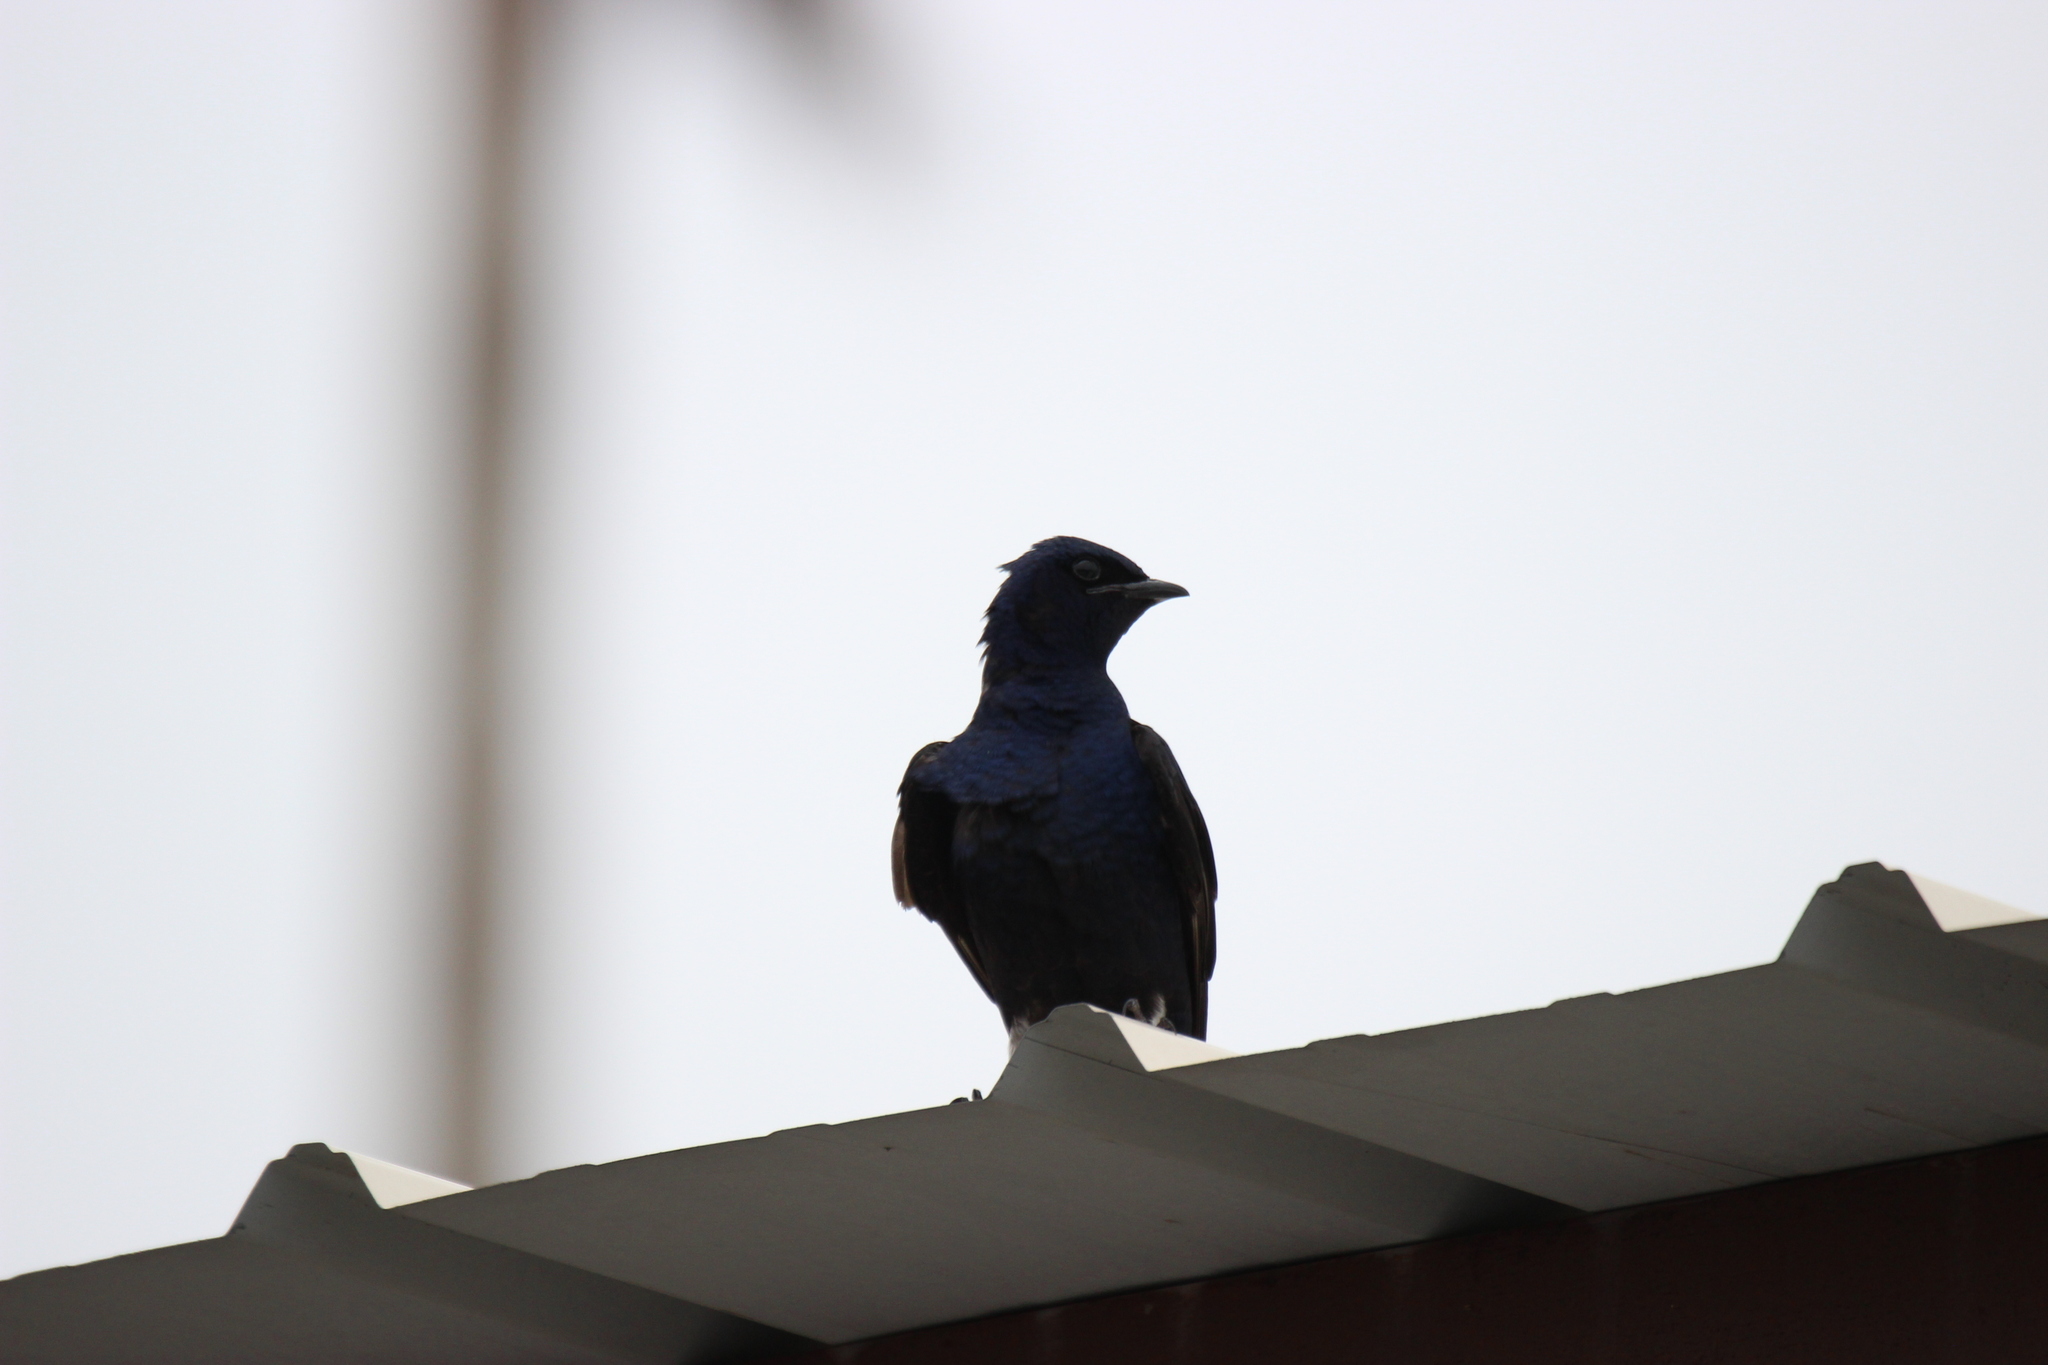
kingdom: Animalia
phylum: Chordata
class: Aves
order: Passeriformes
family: Hirundinidae
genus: Progne
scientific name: Progne subis
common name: Purple martin
